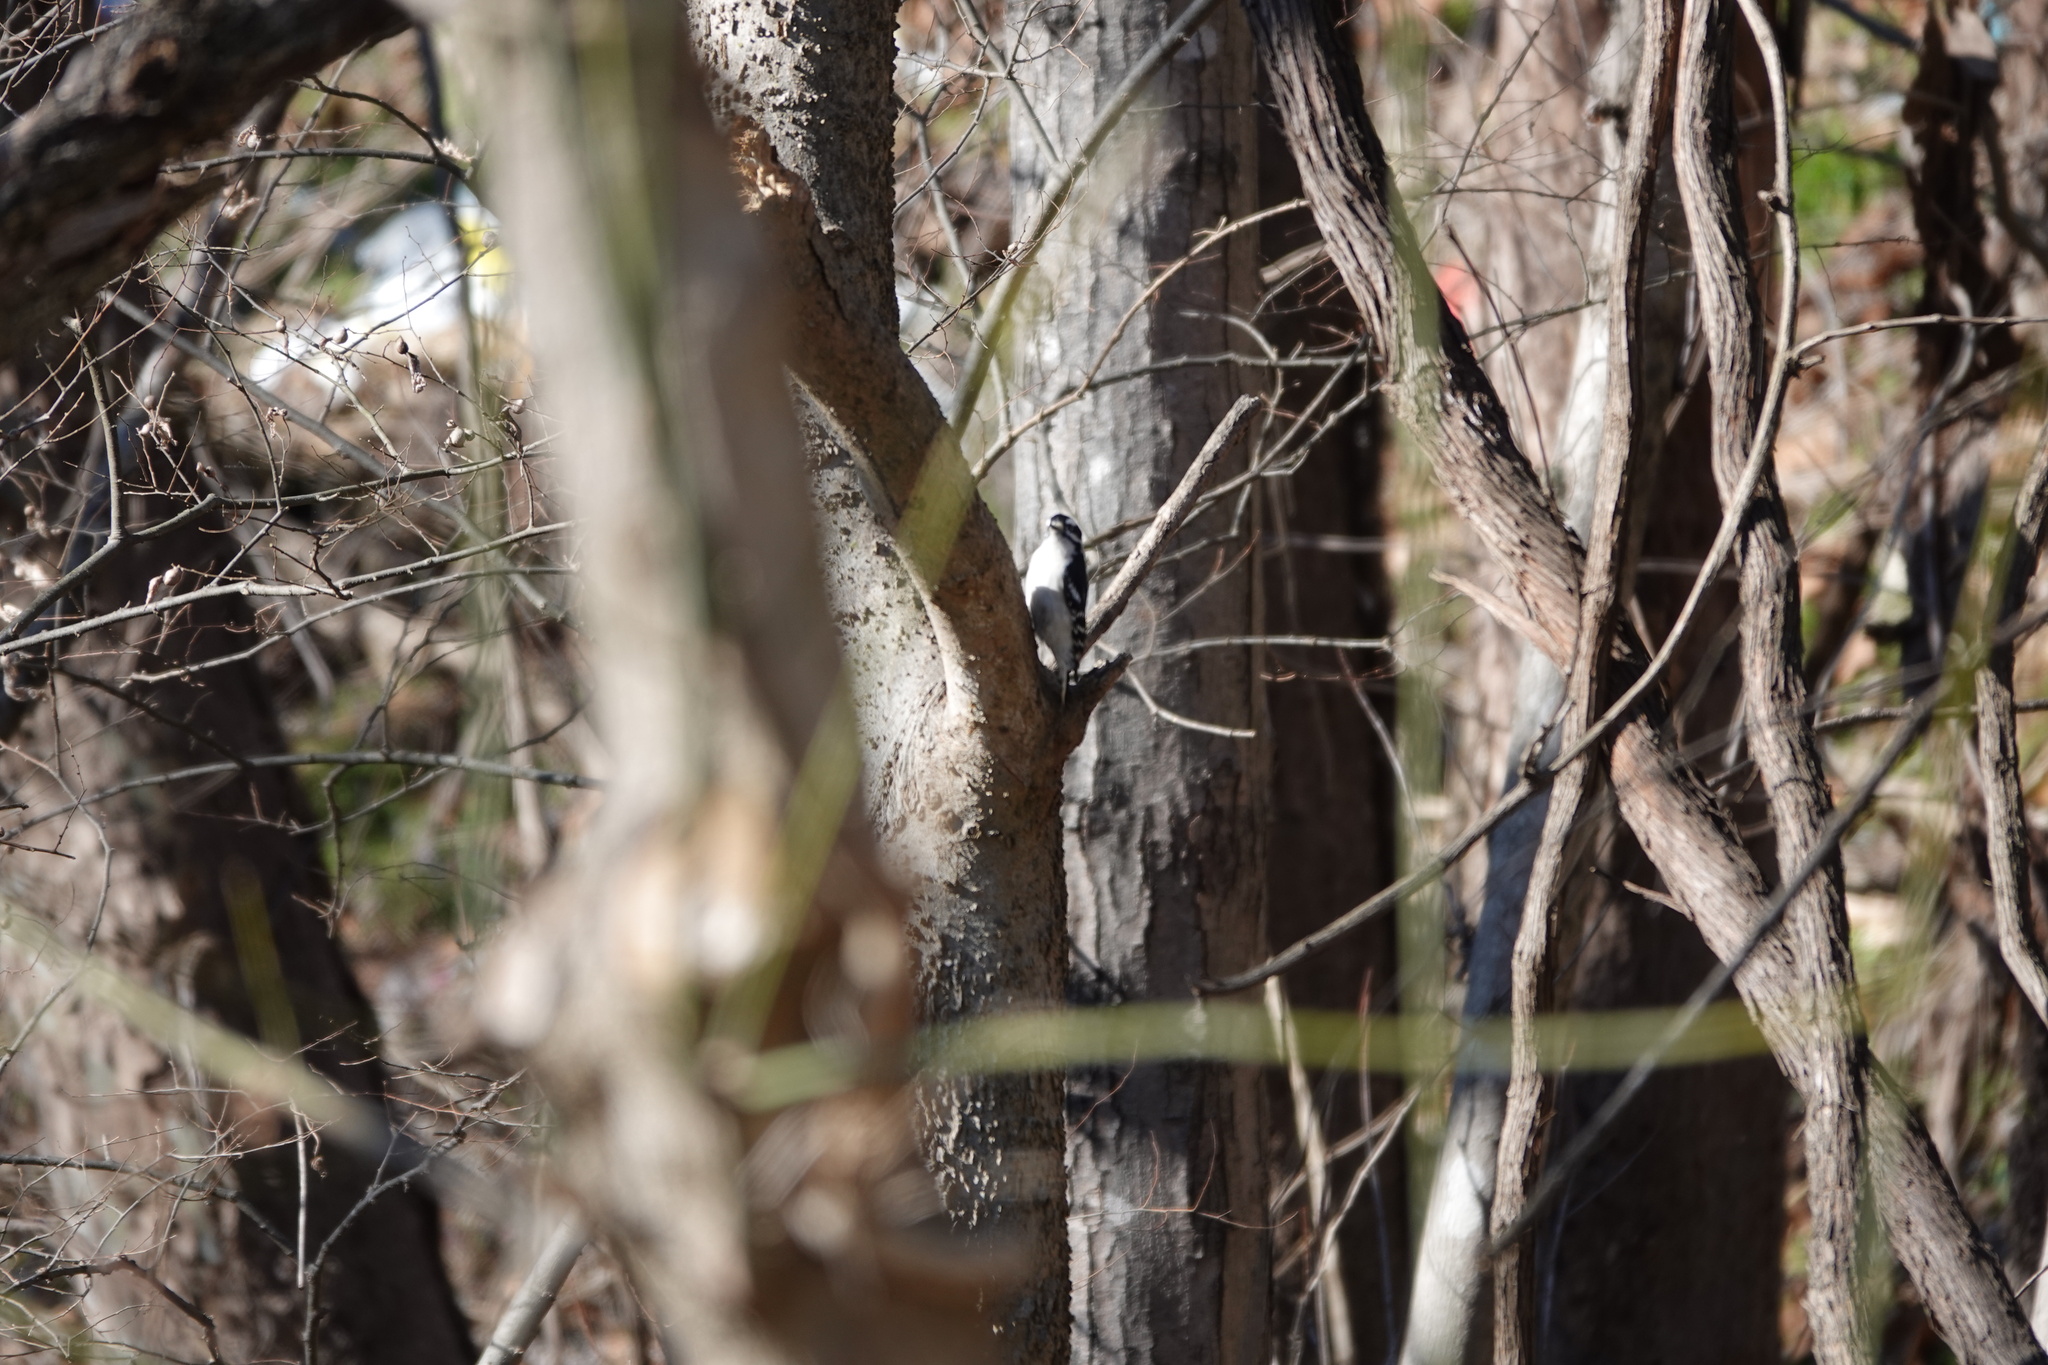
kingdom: Animalia
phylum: Chordata
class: Aves
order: Piciformes
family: Picidae
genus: Dryobates
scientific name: Dryobates pubescens
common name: Downy woodpecker
